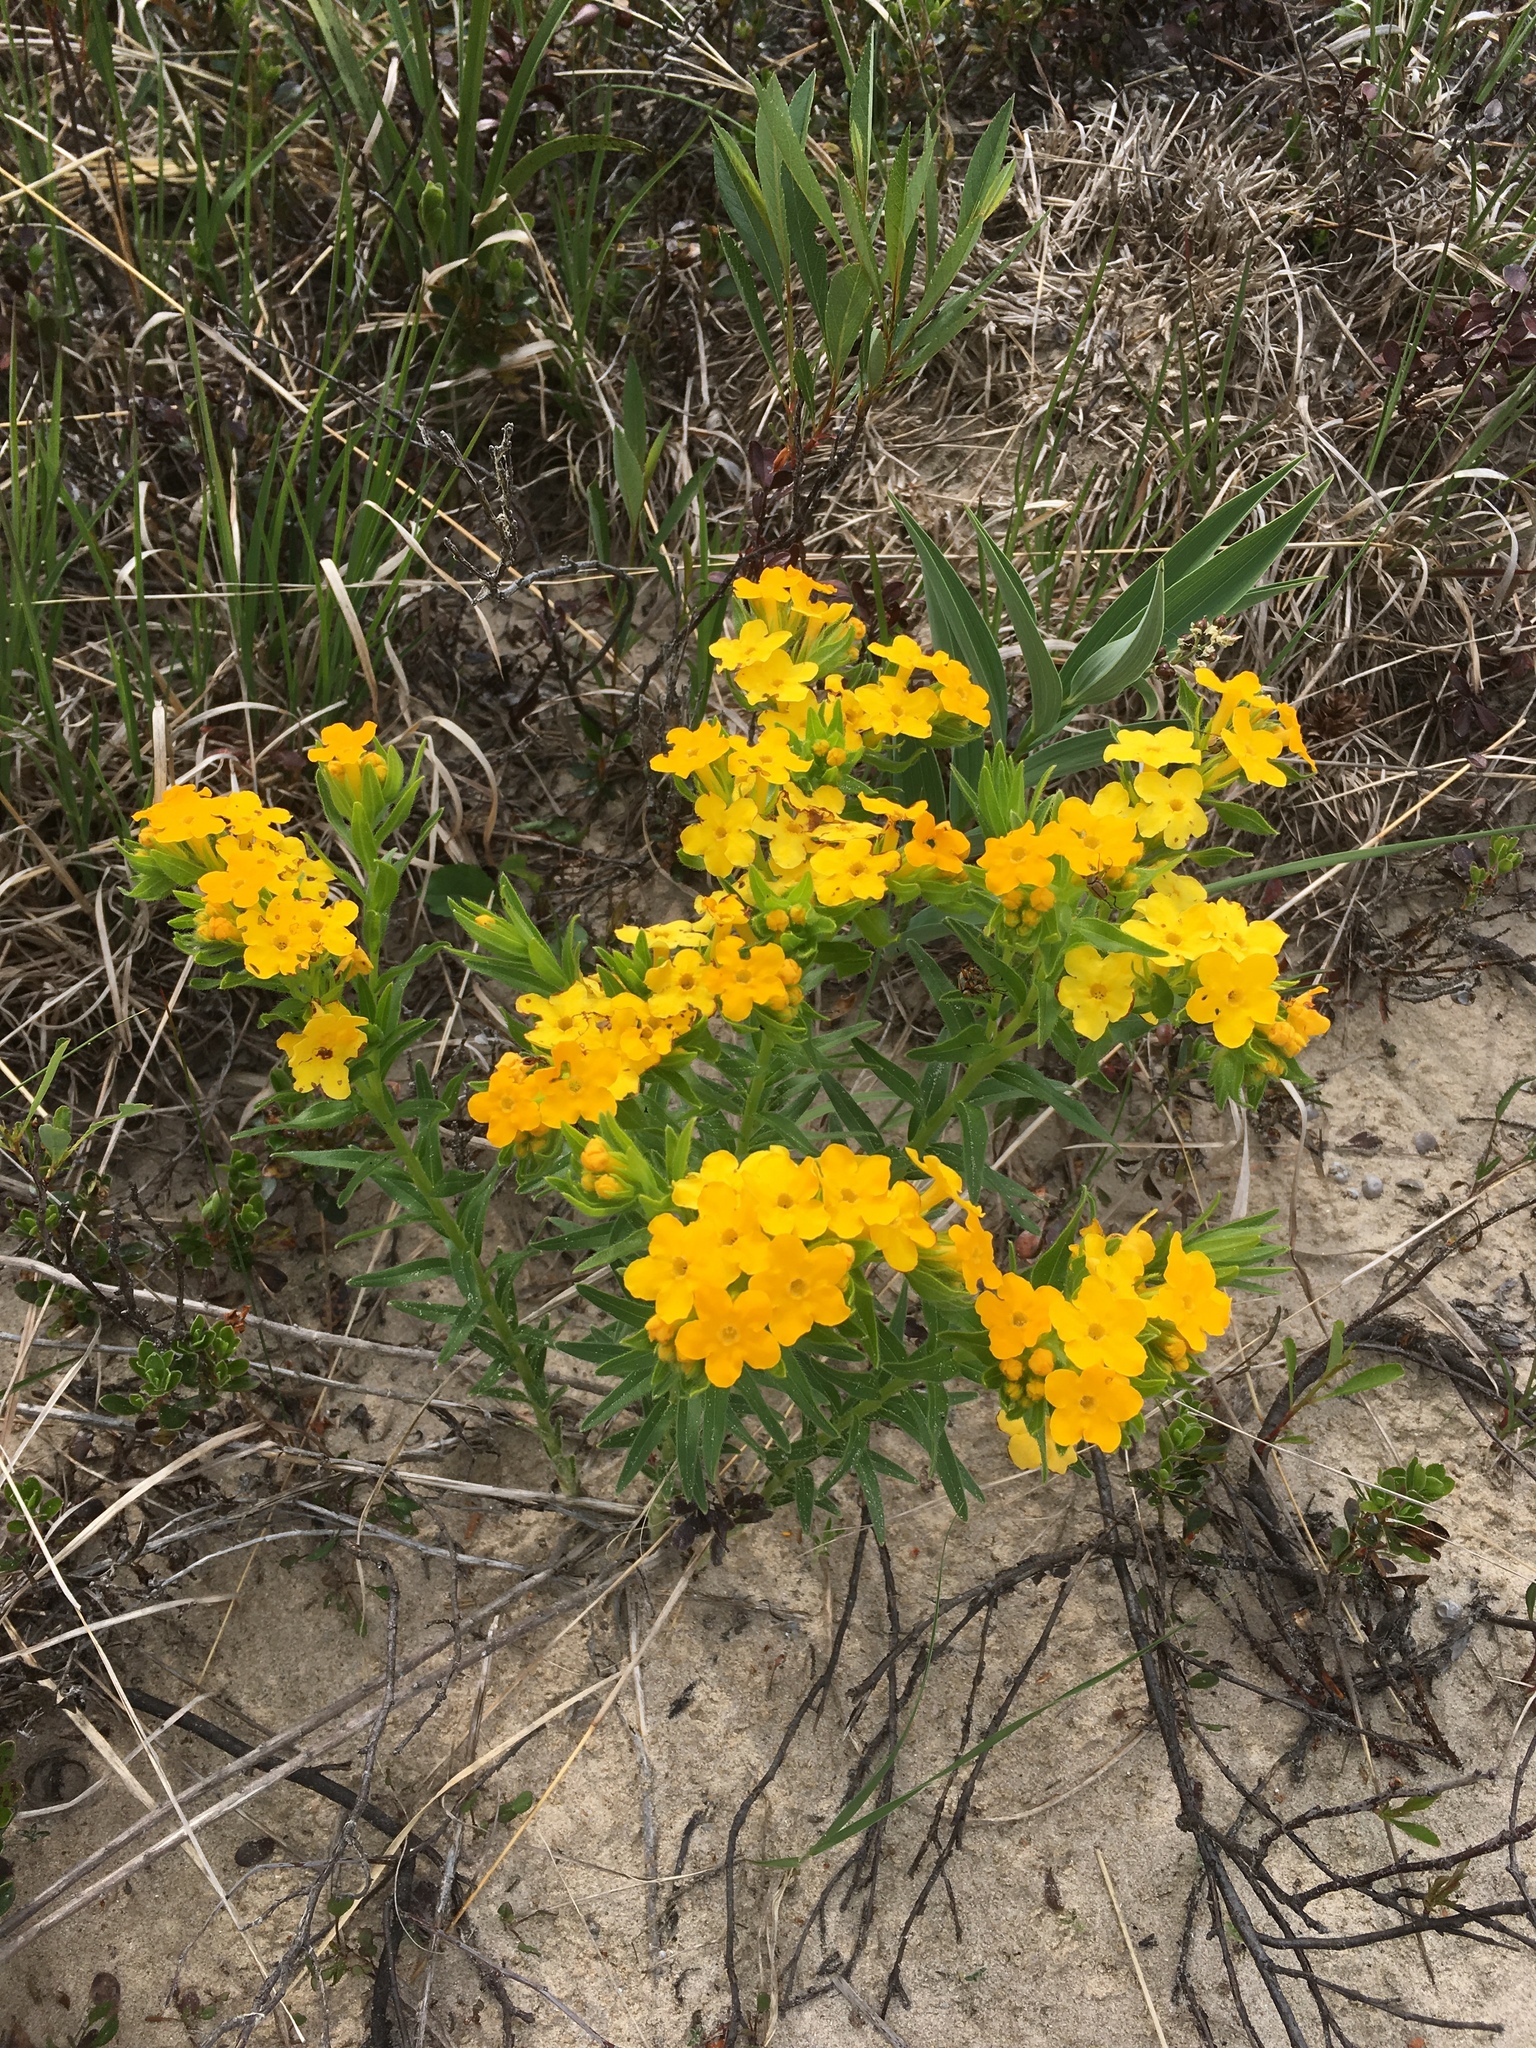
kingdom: Plantae
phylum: Tracheophyta
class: Magnoliopsida
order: Boraginales
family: Boraginaceae
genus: Lithospermum
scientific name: Lithospermum caroliniense
